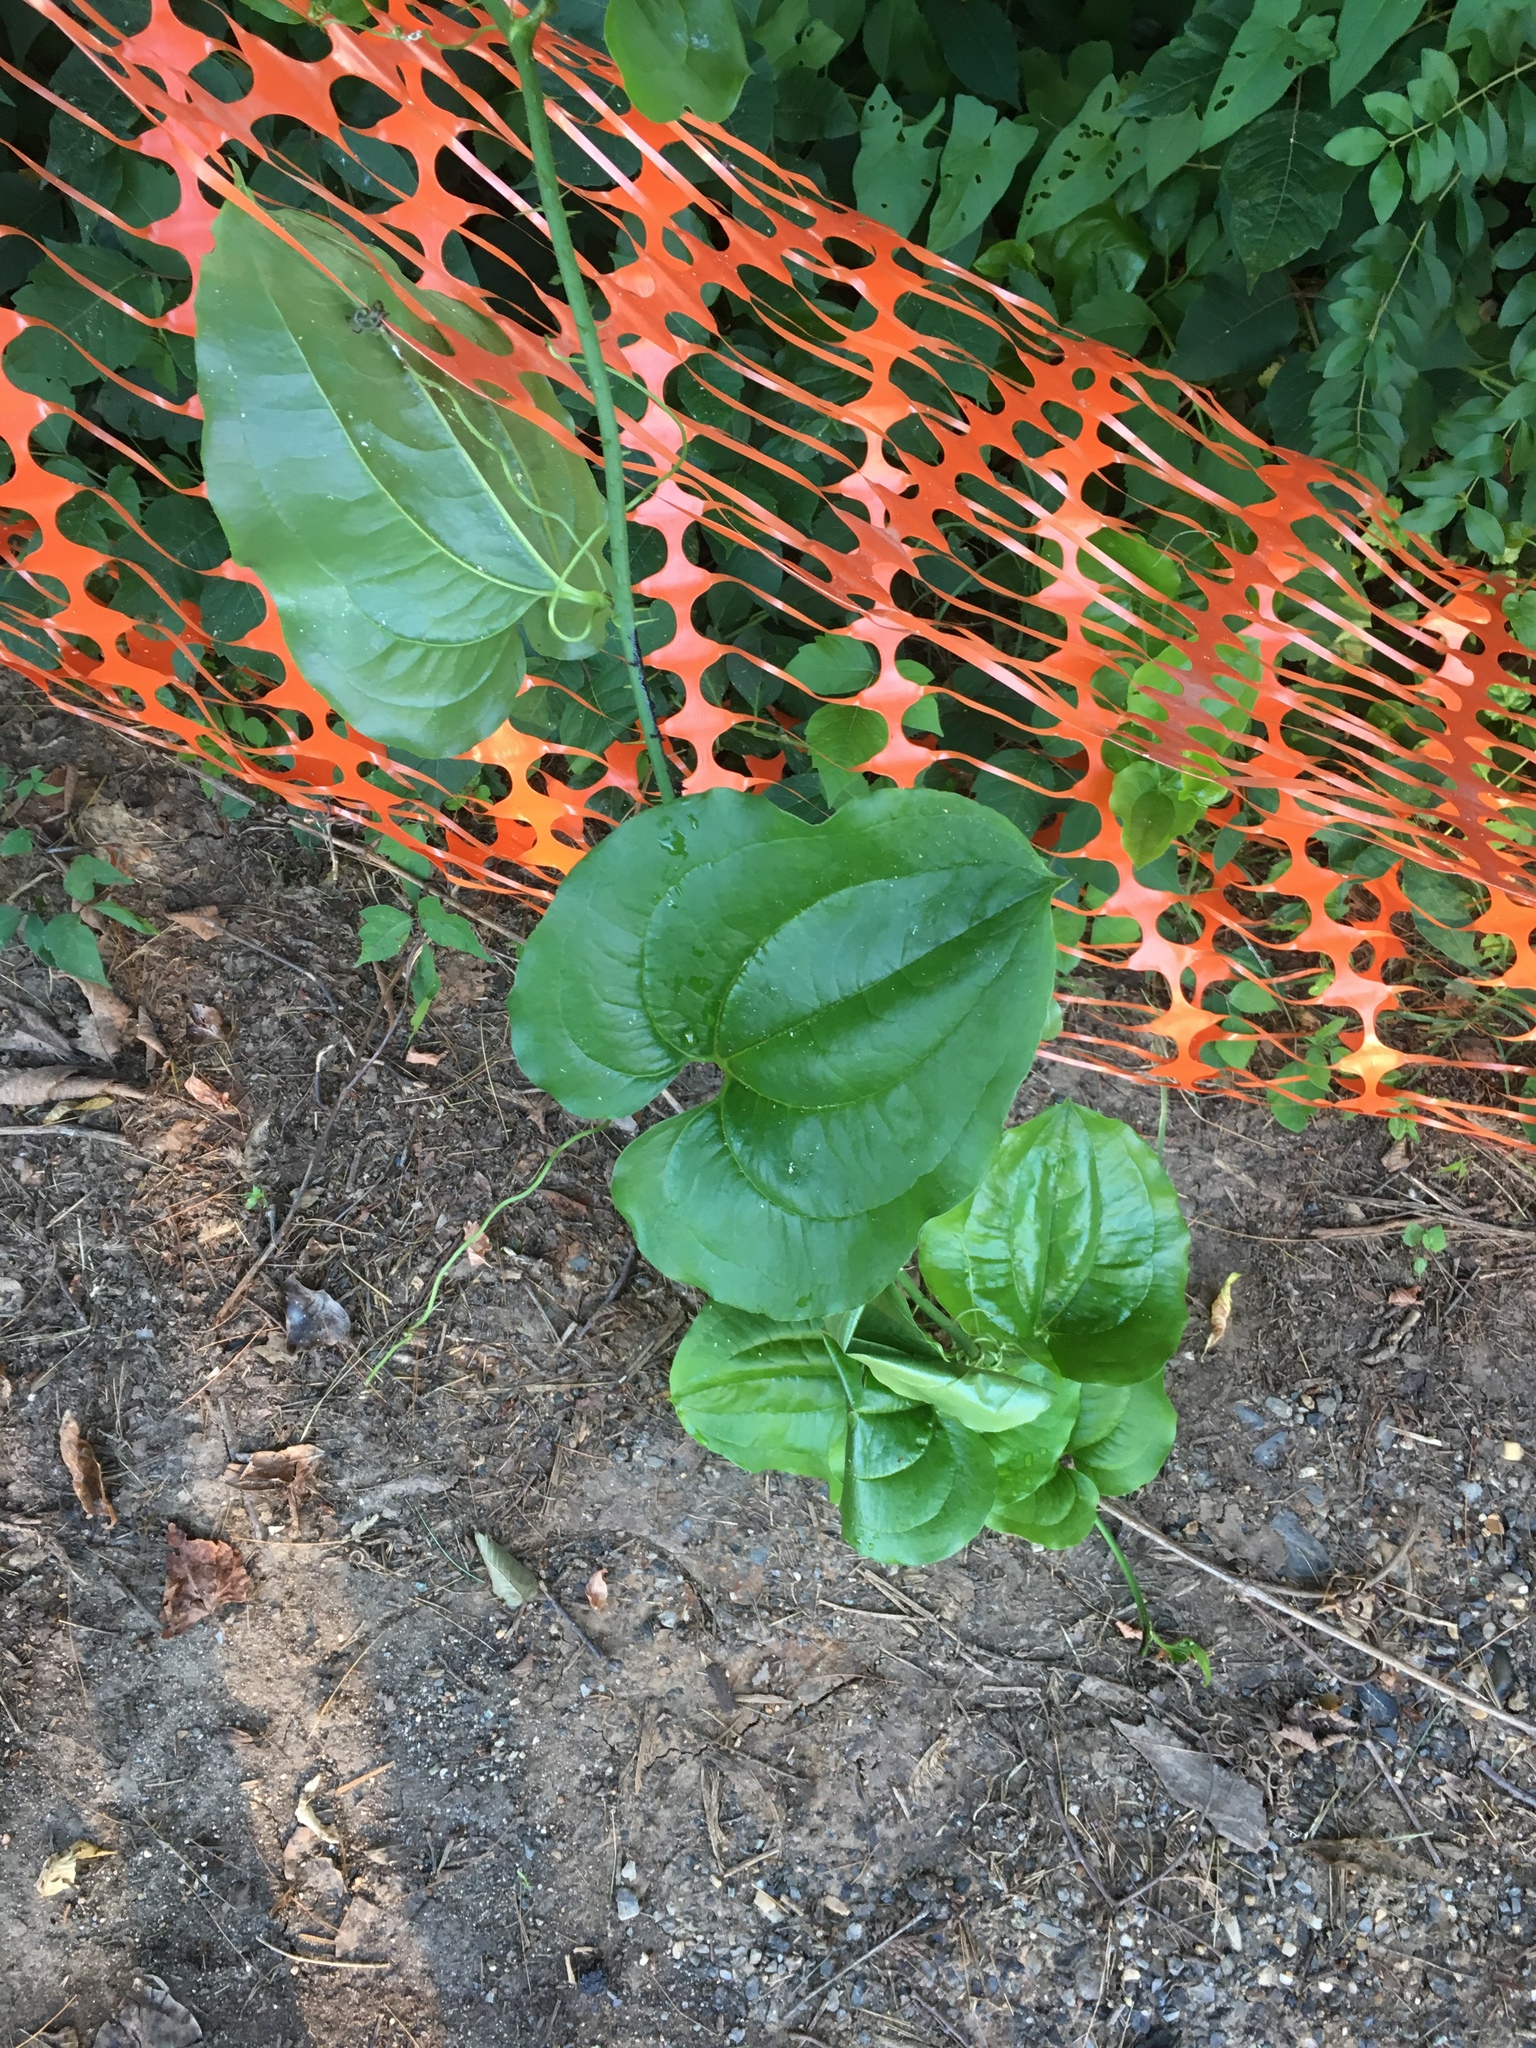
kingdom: Plantae
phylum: Tracheophyta
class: Liliopsida
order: Liliales
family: Smilacaceae
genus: Smilax
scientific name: Smilax tamnoides
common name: Hellfetter
